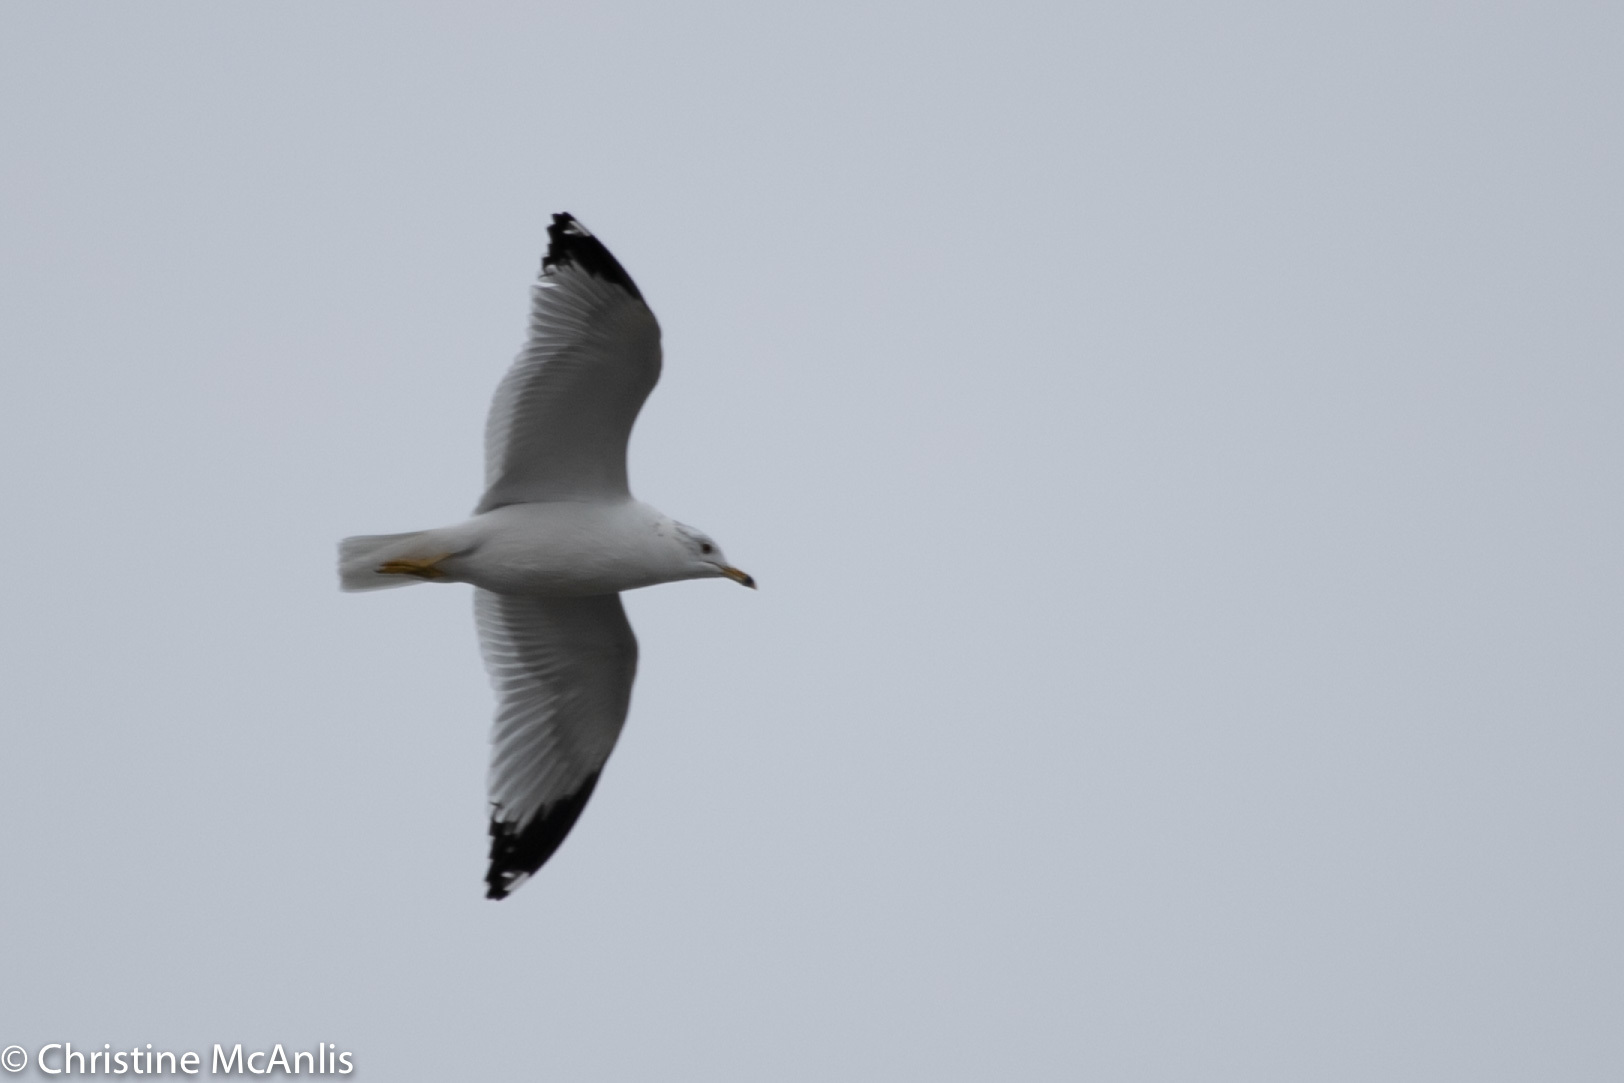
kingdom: Animalia
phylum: Chordata
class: Aves
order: Charadriiformes
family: Laridae
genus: Larus
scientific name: Larus delawarensis
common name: Ring-billed gull
